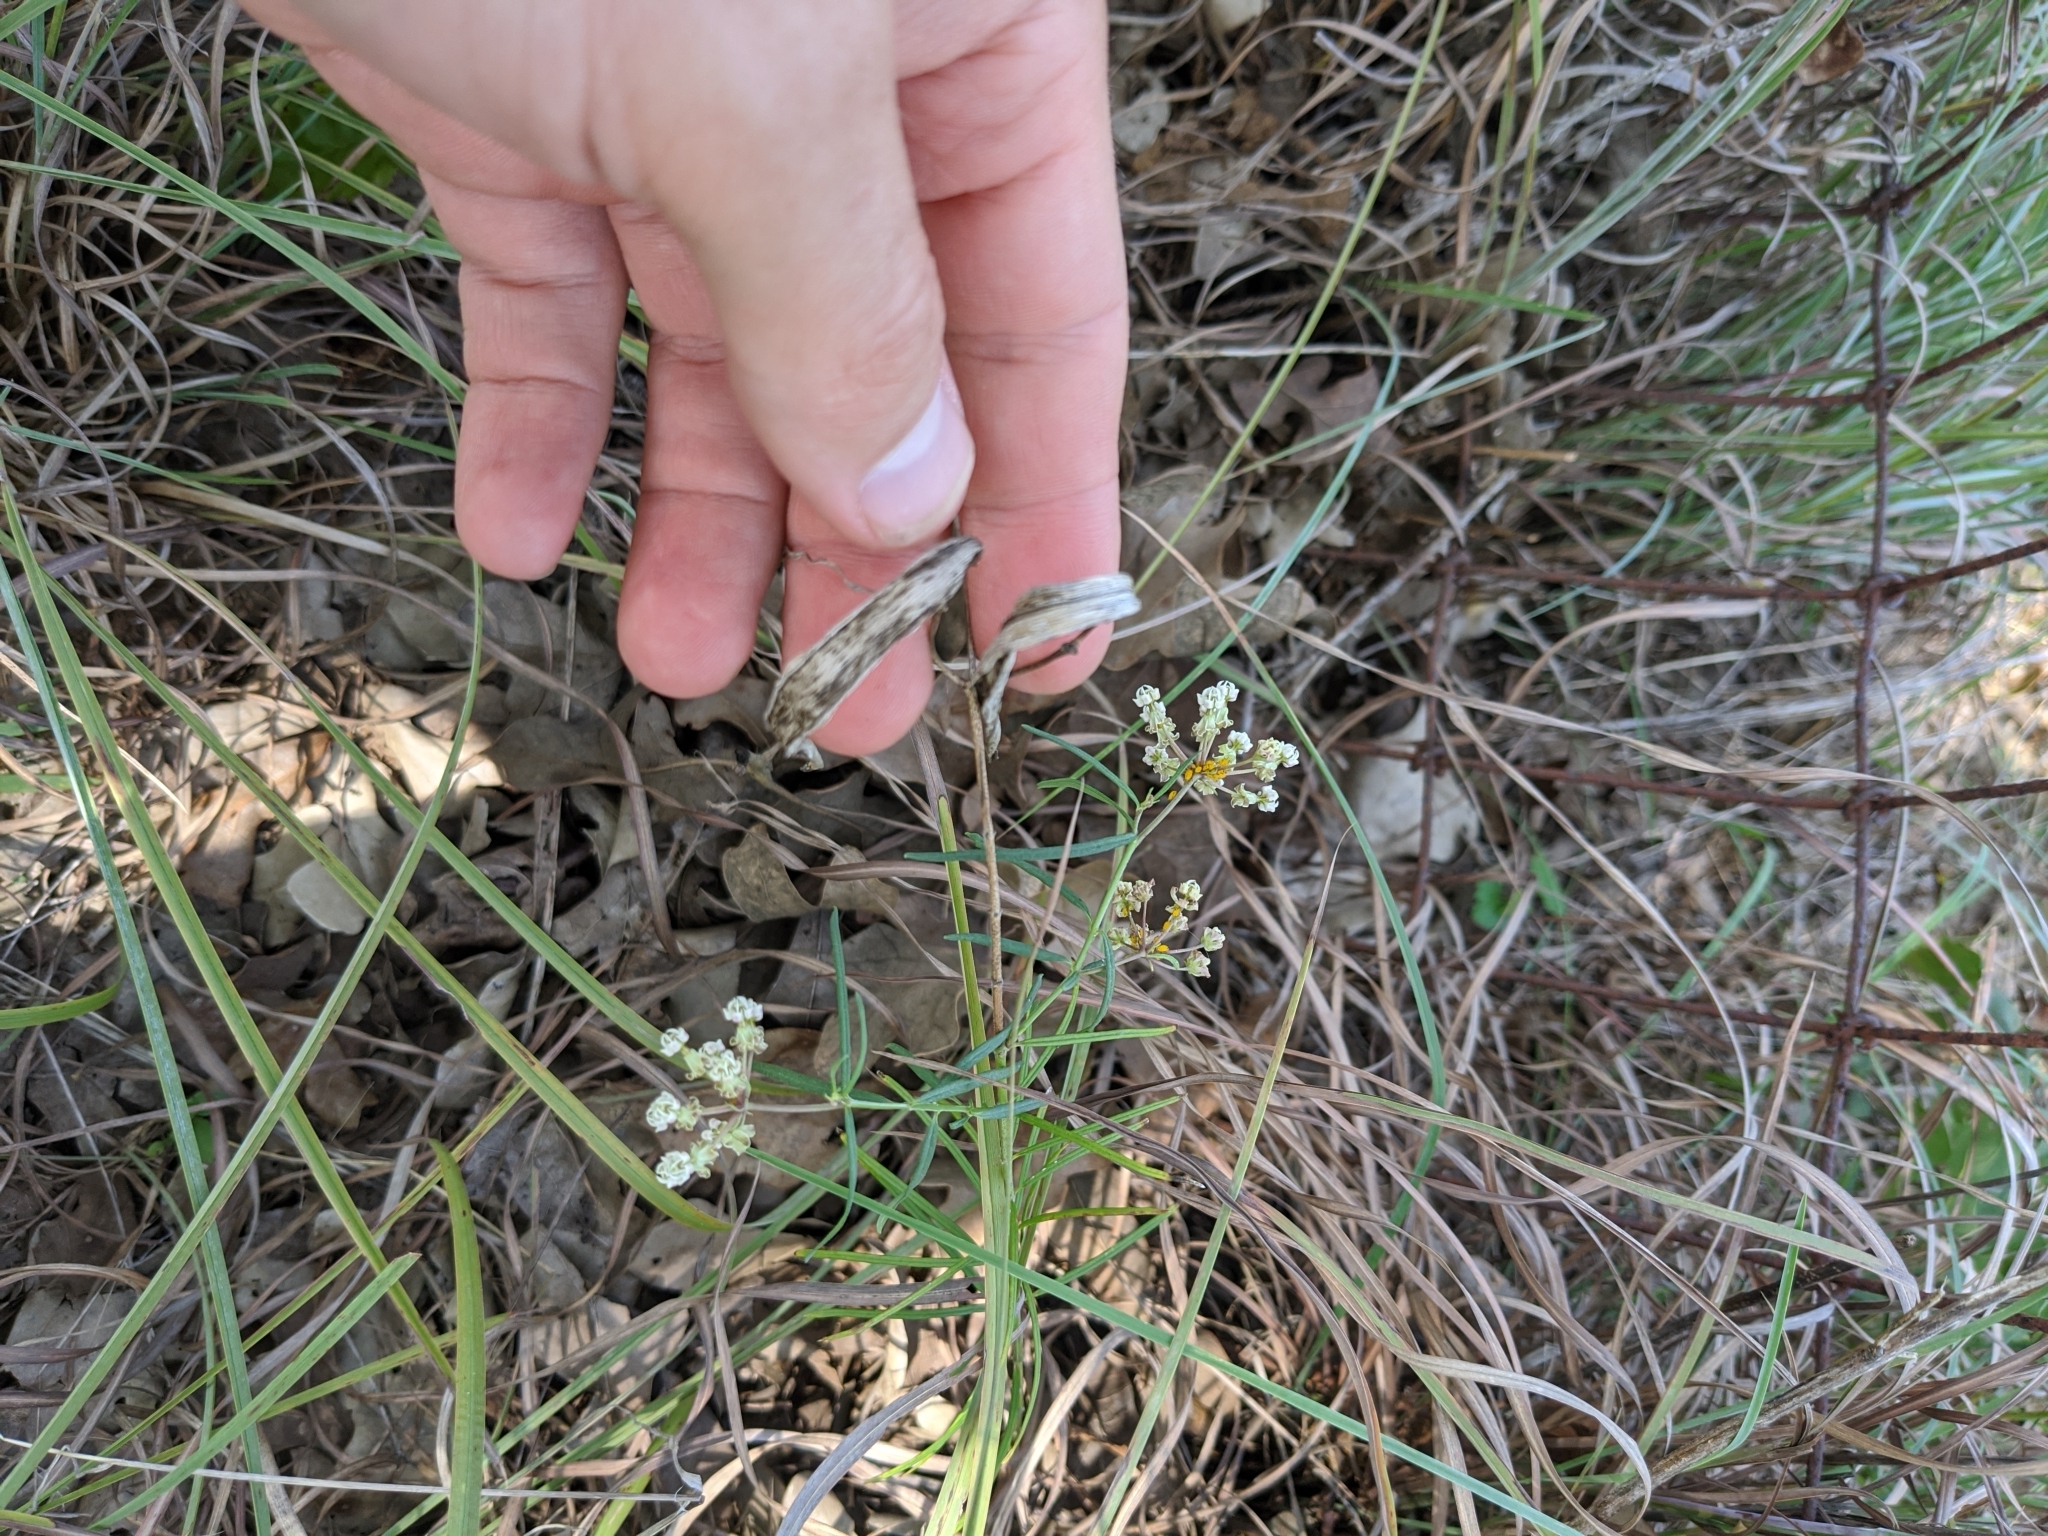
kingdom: Plantae
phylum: Tracheophyta
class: Magnoliopsida
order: Gentianales
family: Apocynaceae
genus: Asclepias
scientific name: Asclepias verticillata
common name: Eastern whorled milkweed
